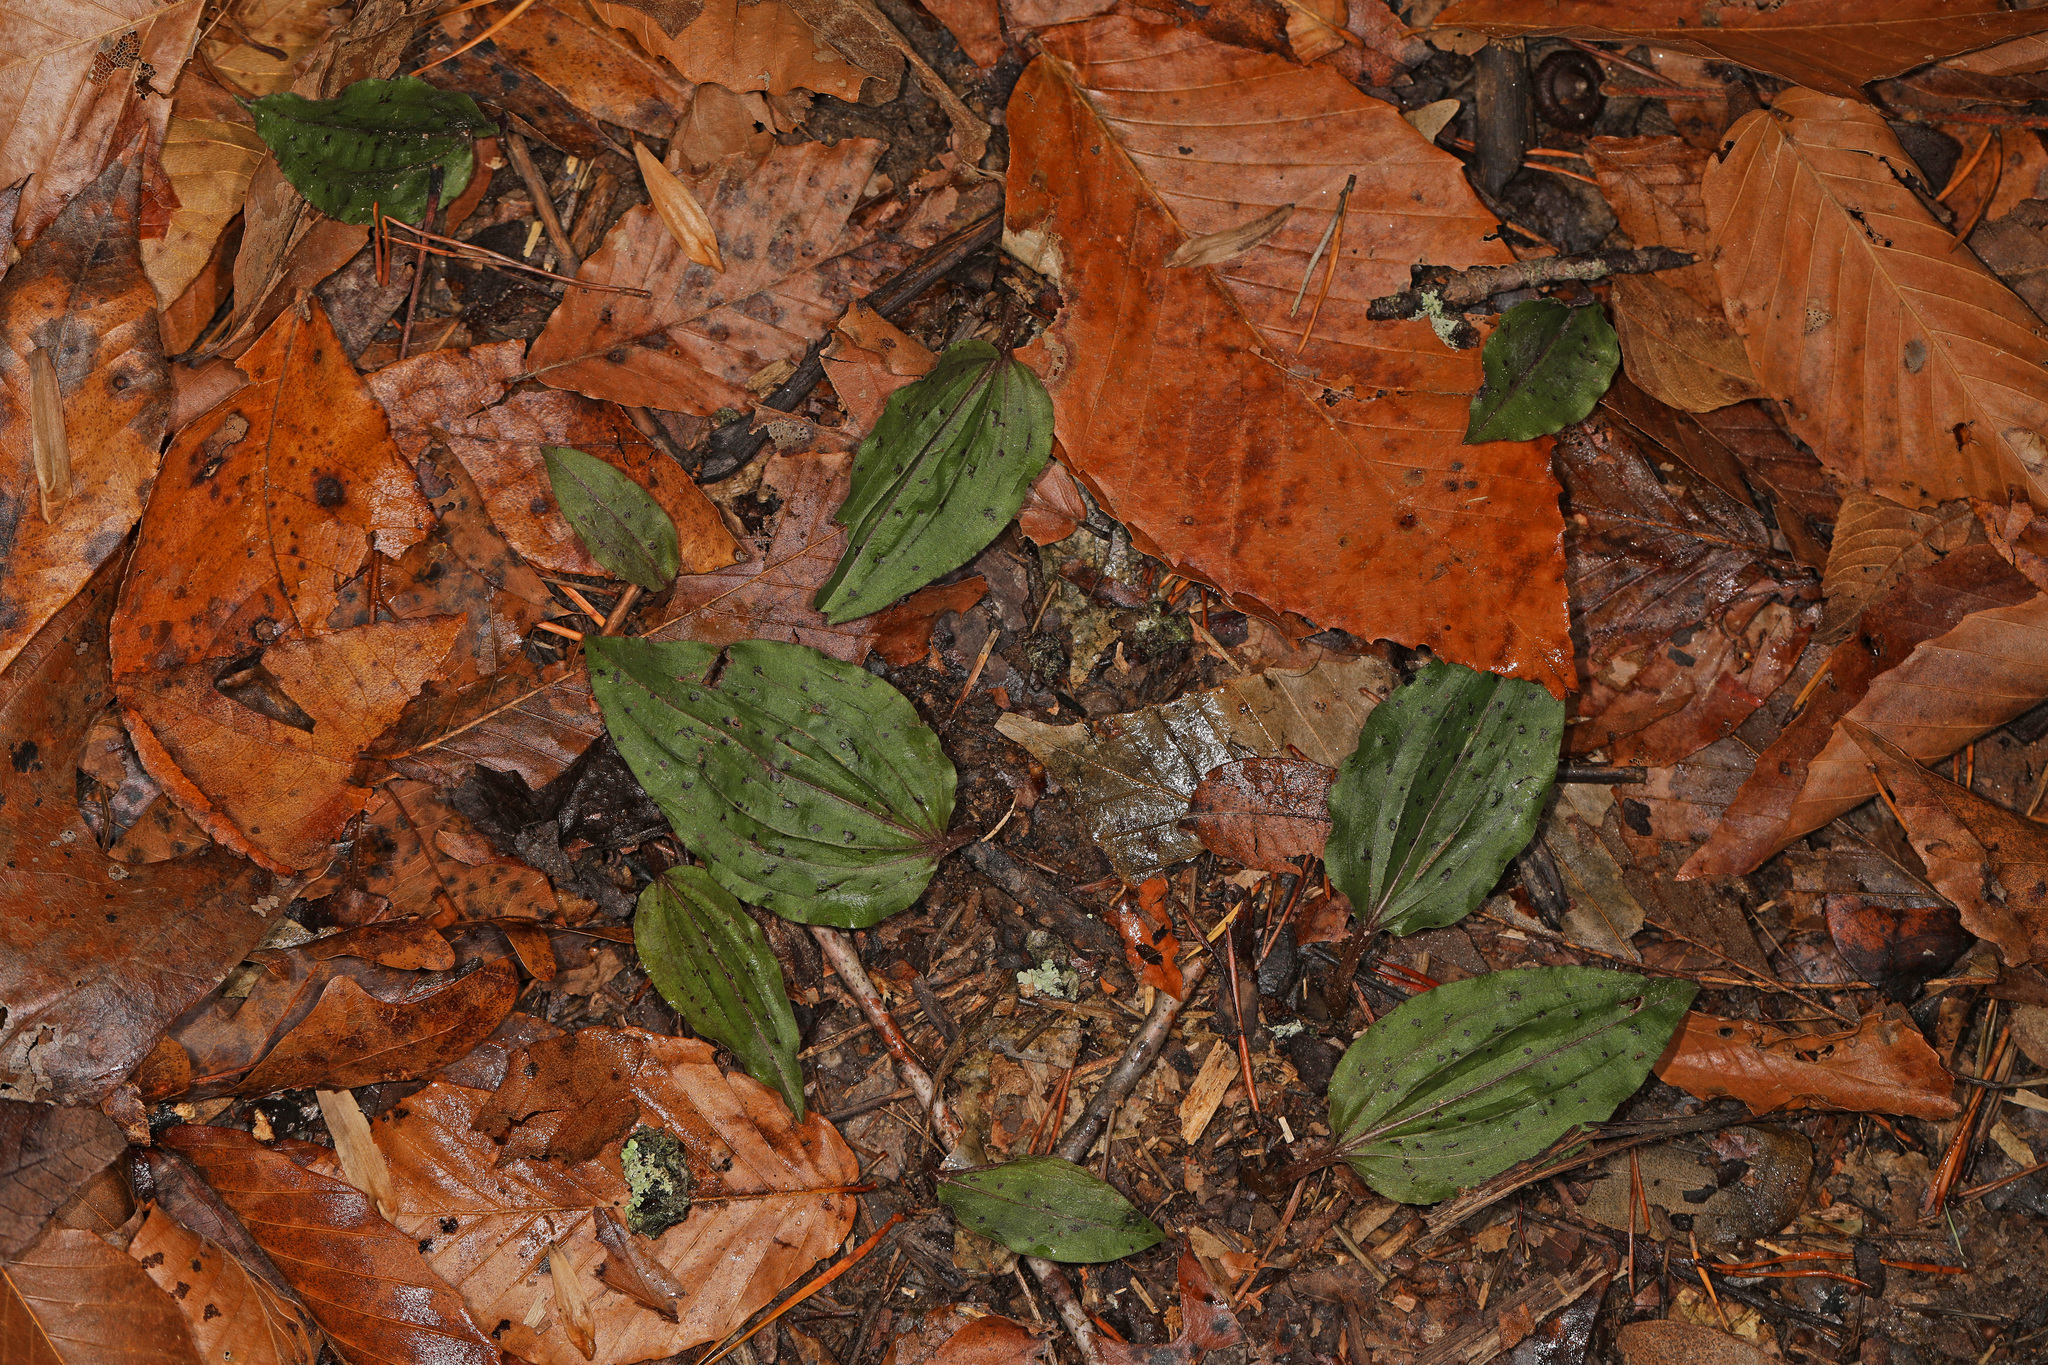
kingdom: Plantae
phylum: Tracheophyta
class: Liliopsida
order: Asparagales
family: Orchidaceae
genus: Tipularia
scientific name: Tipularia discolor
